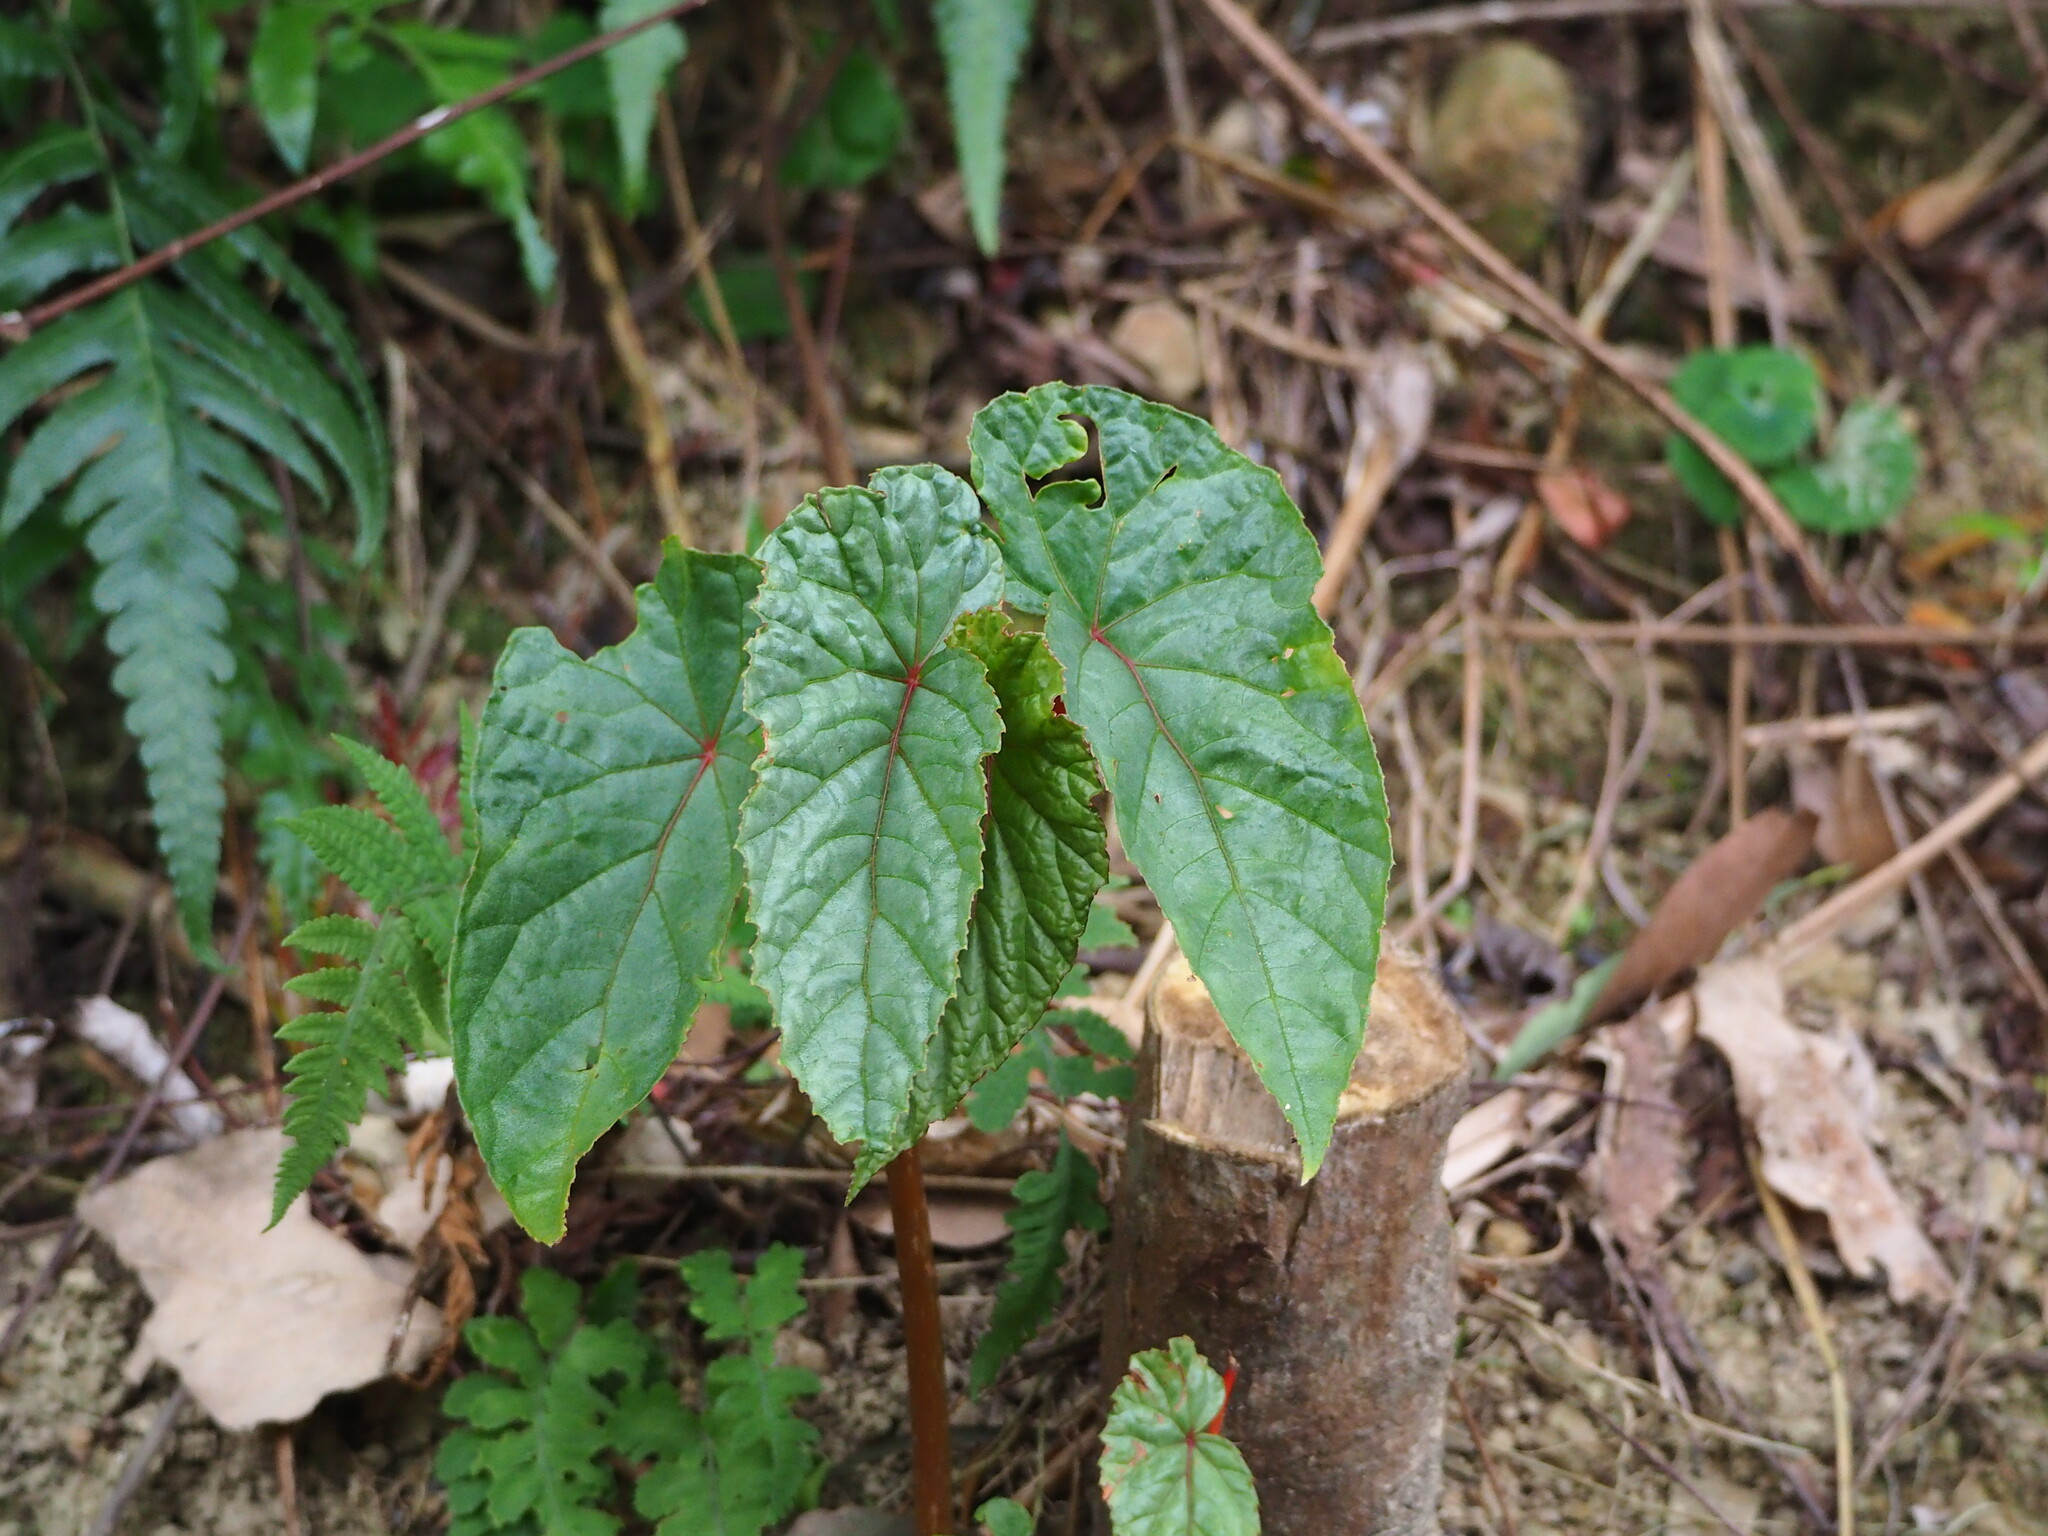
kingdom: Plantae
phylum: Tracheophyta
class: Magnoliopsida
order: Cucurbitales
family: Begoniaceae
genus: Begonia
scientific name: Begonia longifolia
